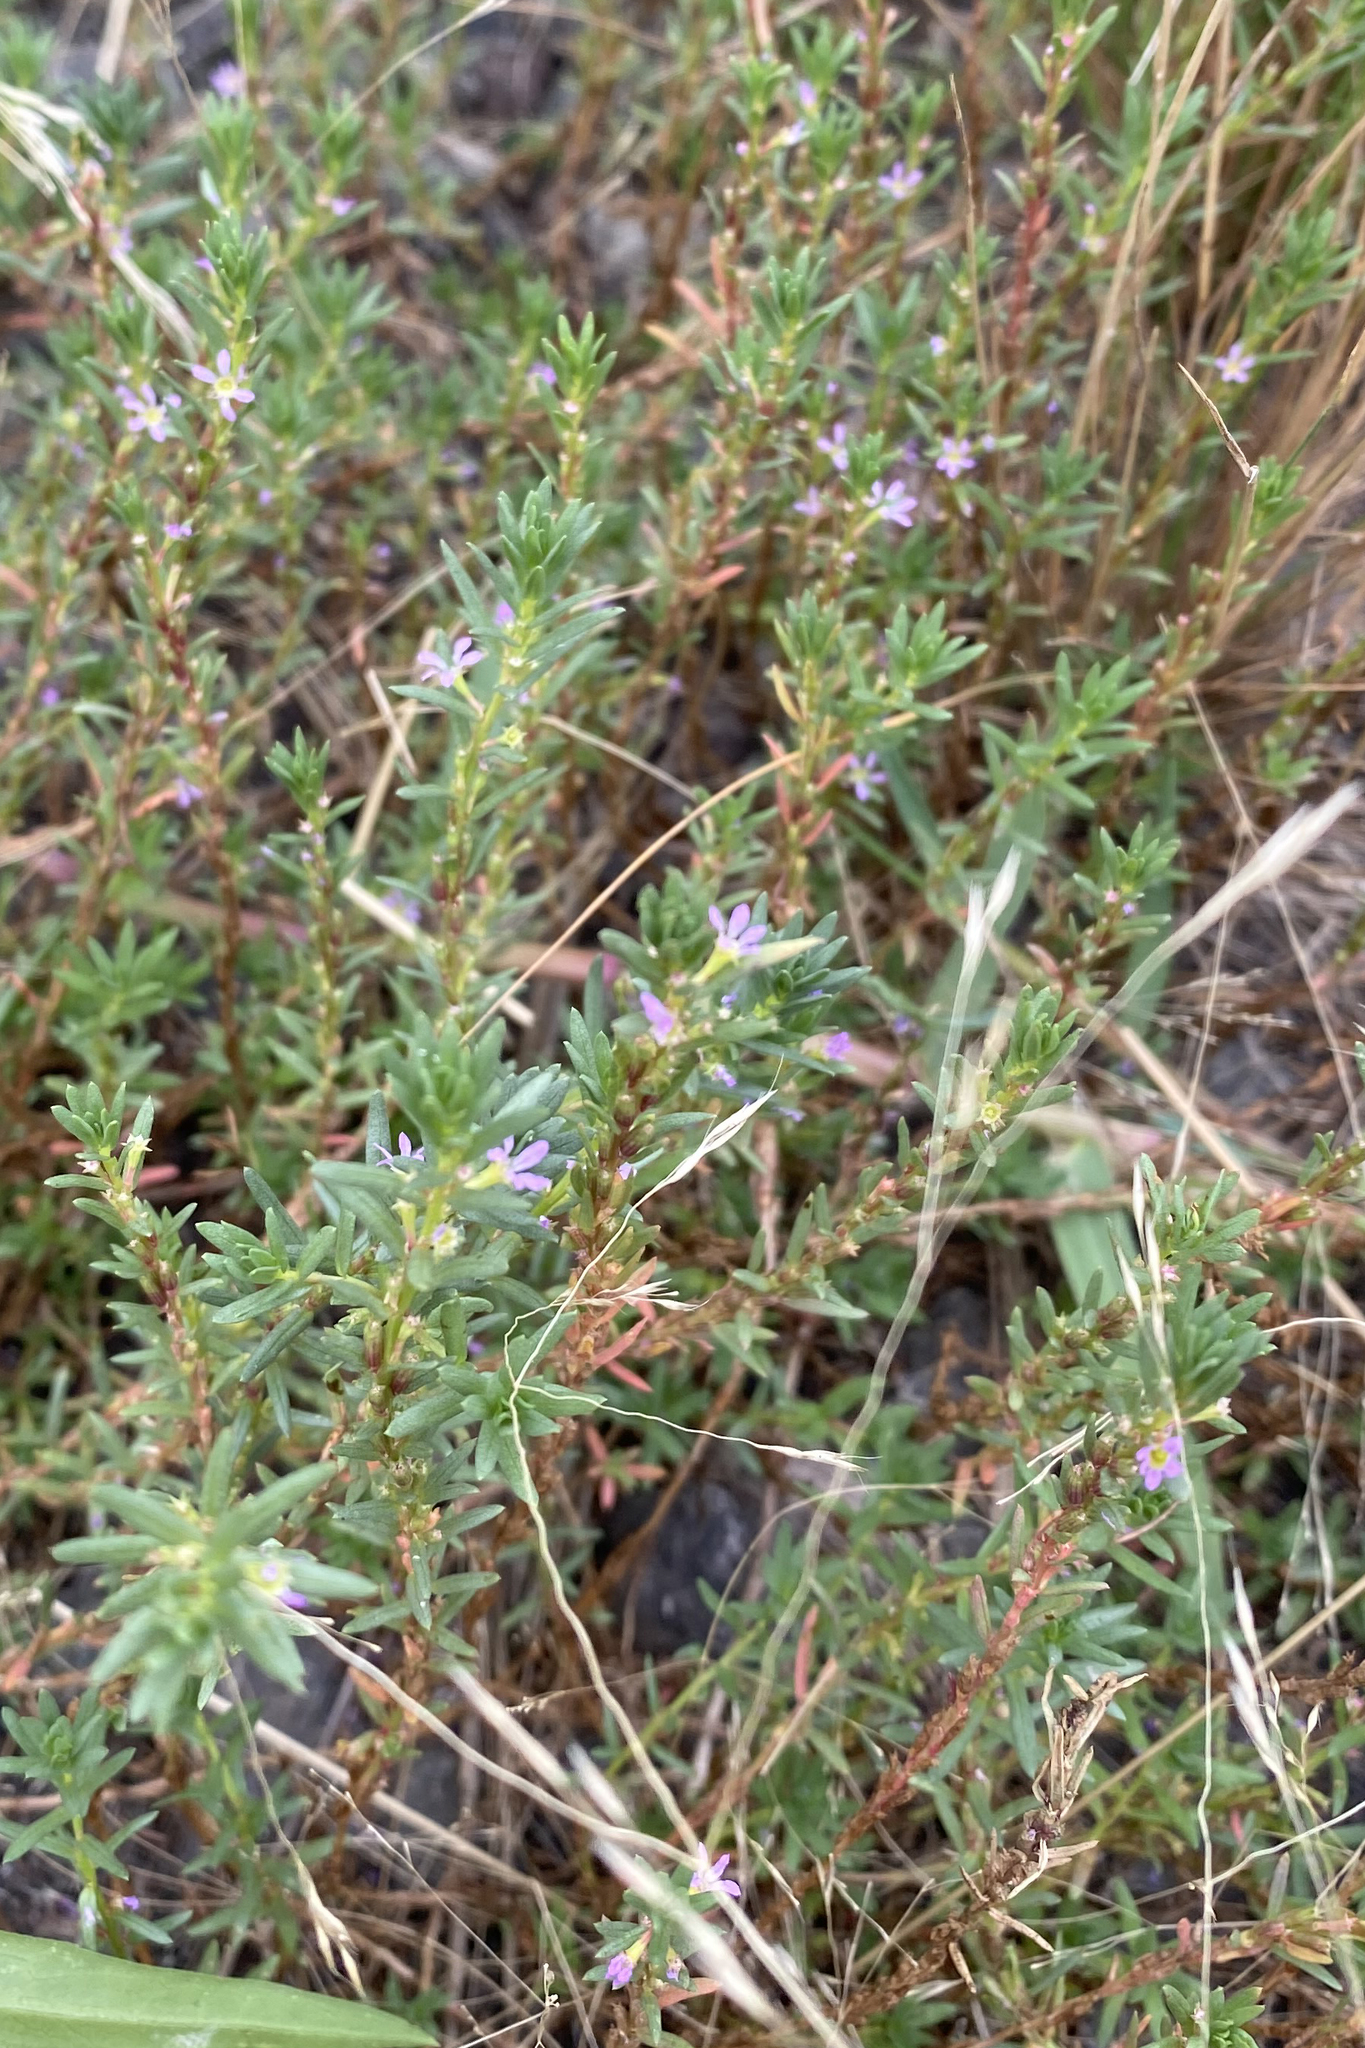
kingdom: Plantae
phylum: Tracheophyta
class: Magnoliopsida
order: Myrtales
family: Lythraceae
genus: Lythrum
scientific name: Lythrum hyssopifolia
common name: Grass-poly
